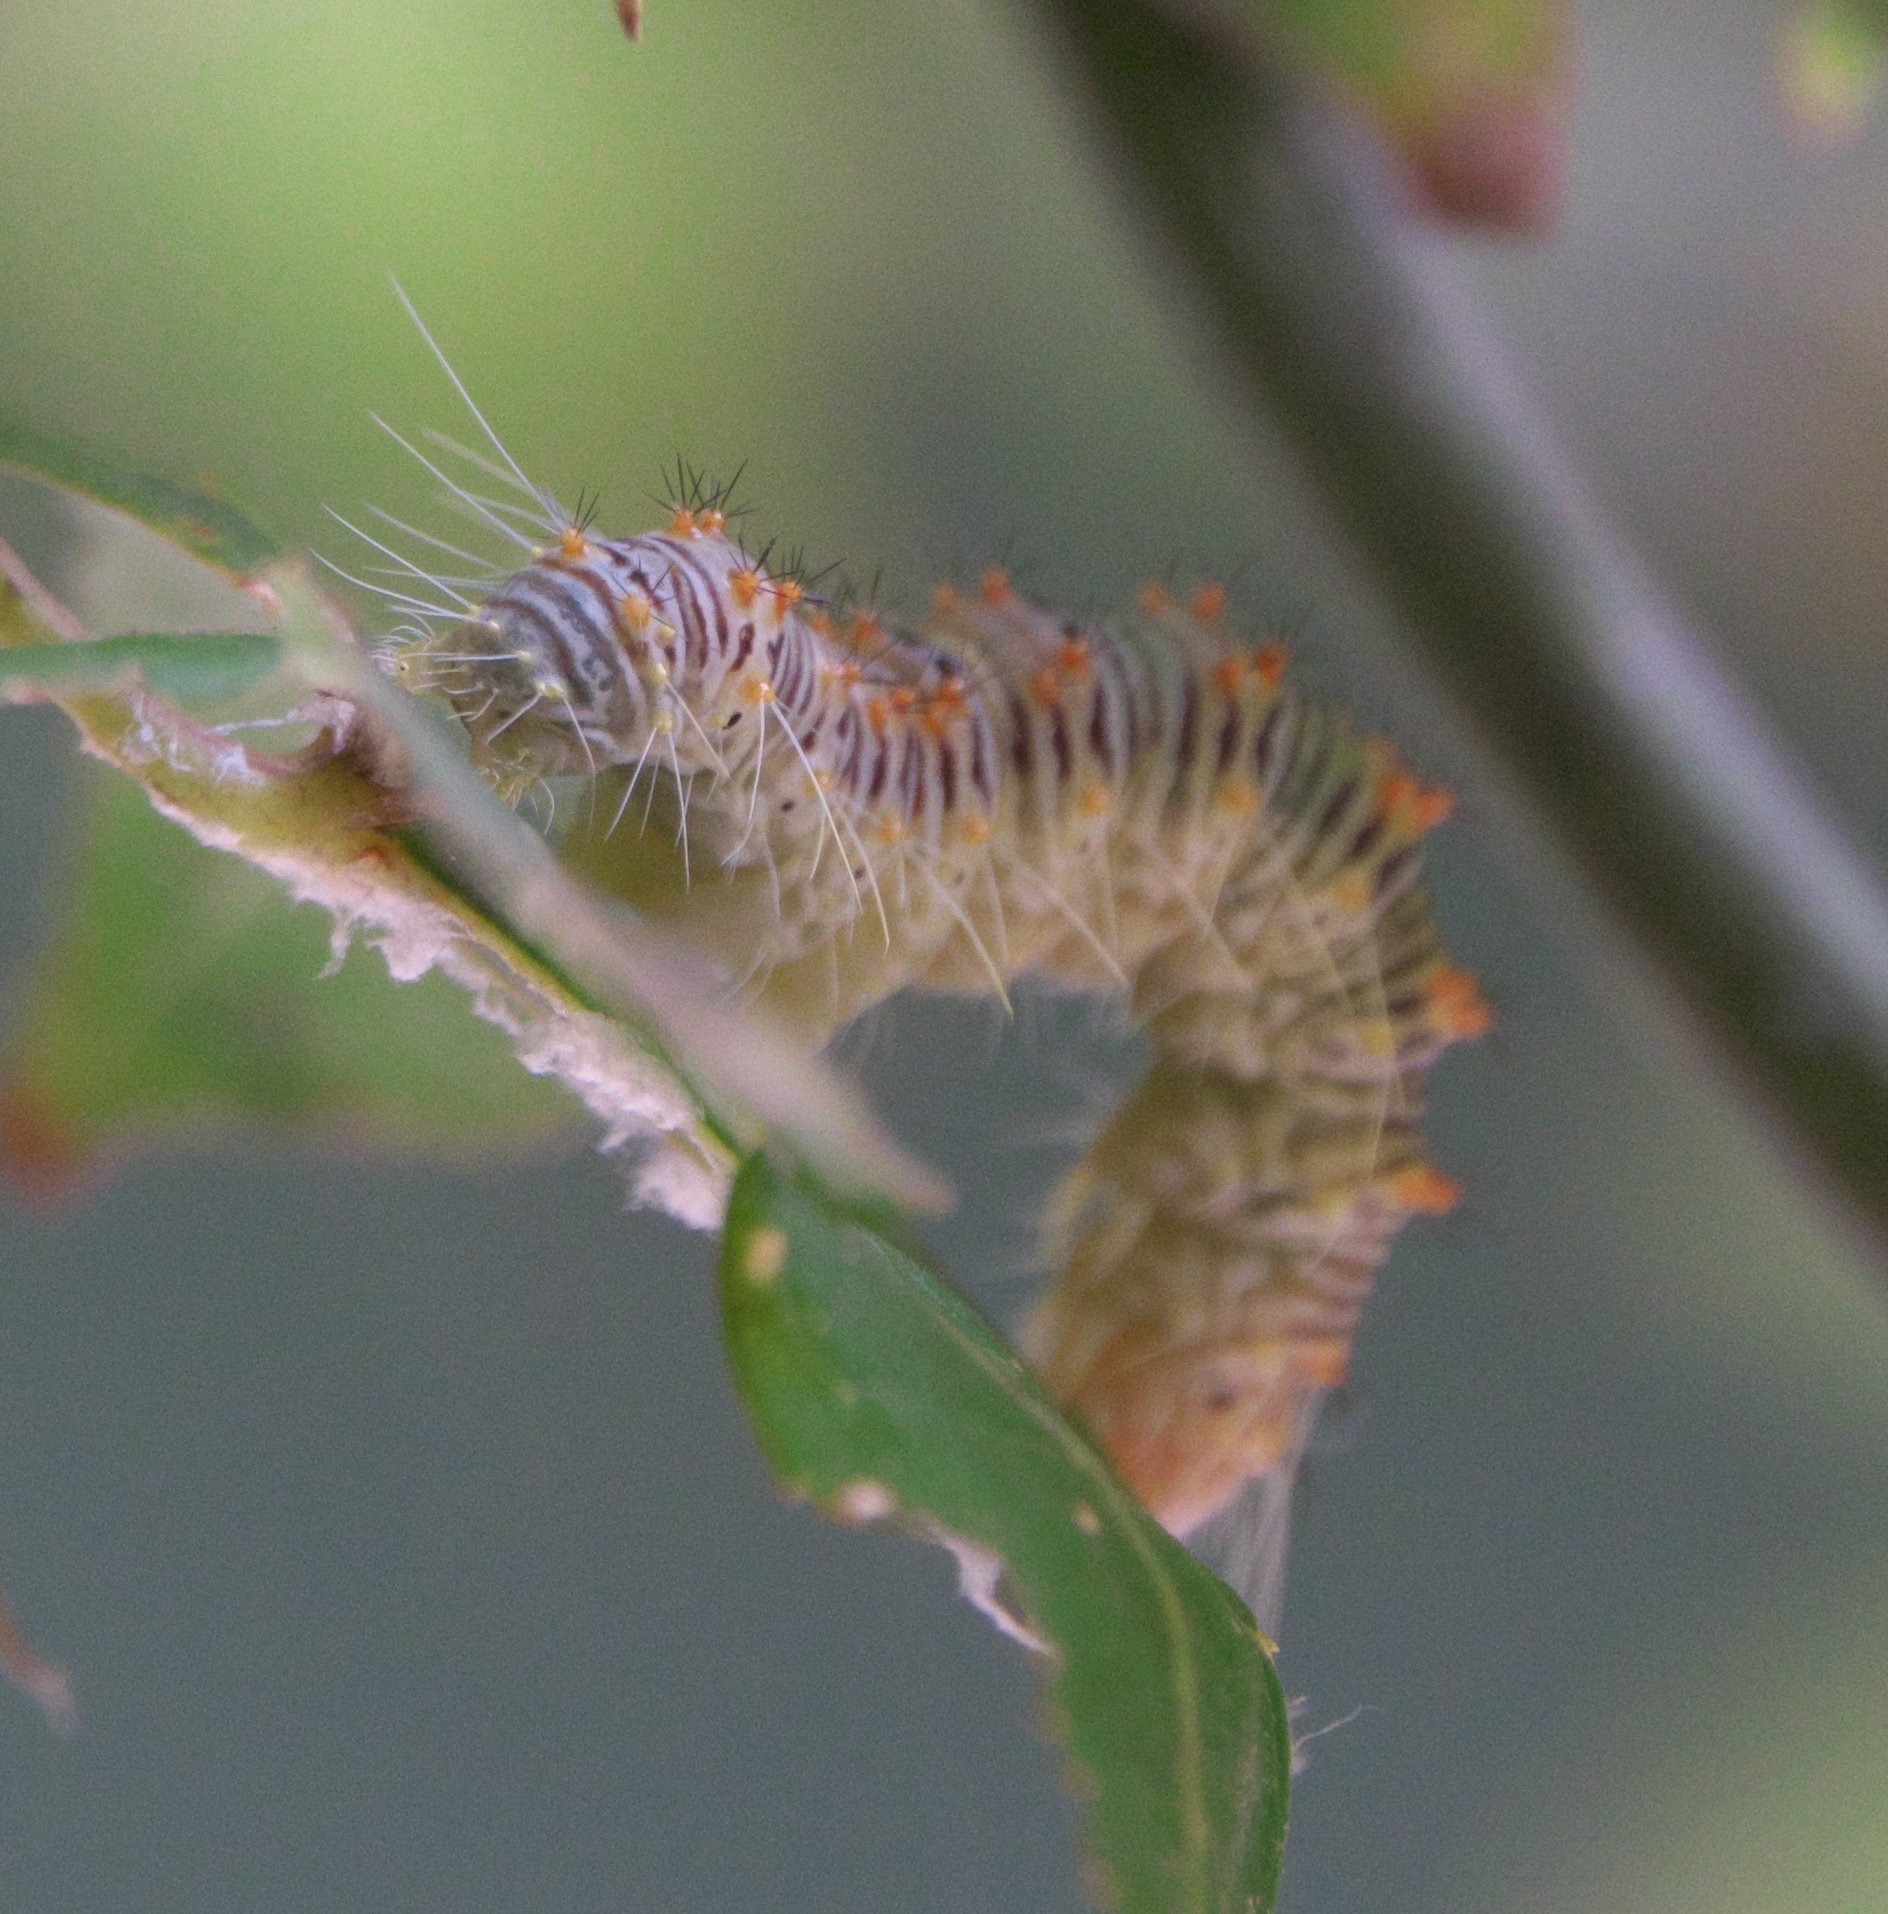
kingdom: Animalia
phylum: Arthropoda
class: Insecta
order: Lepidoptera
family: Noctuidae
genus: Acronicta
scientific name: Acronicta retardata
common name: Maple dagger
